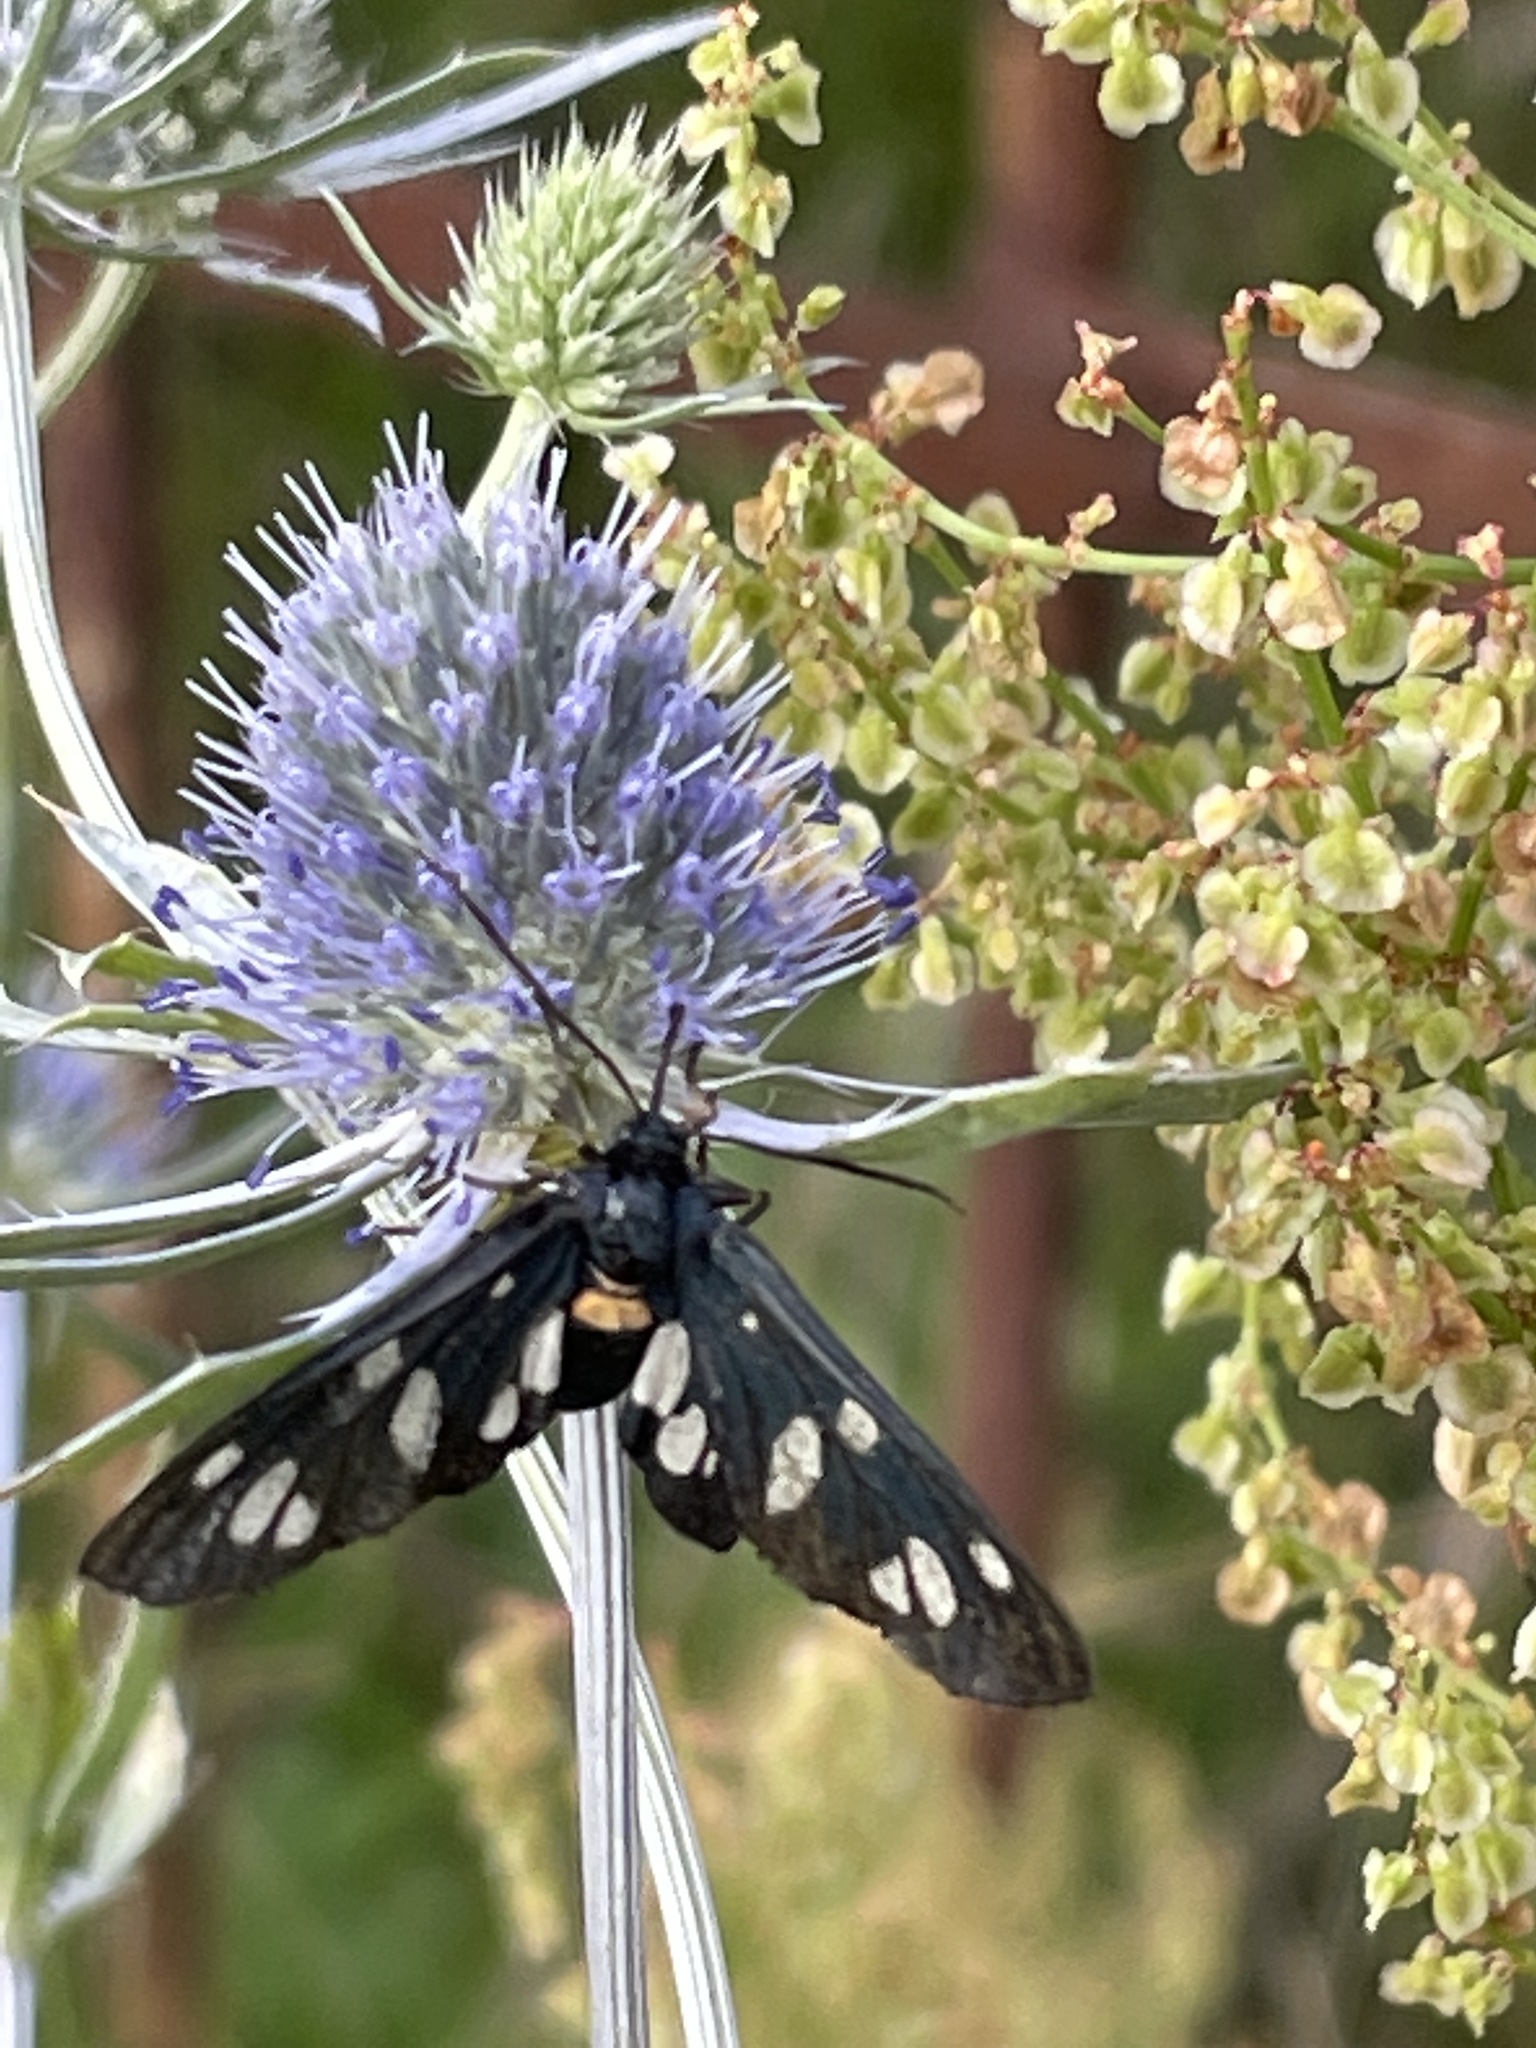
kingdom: Animalia
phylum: Arthropoda
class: Insecta
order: Lepidoptera
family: Erebidae
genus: Amata
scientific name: Amata nigricornis
